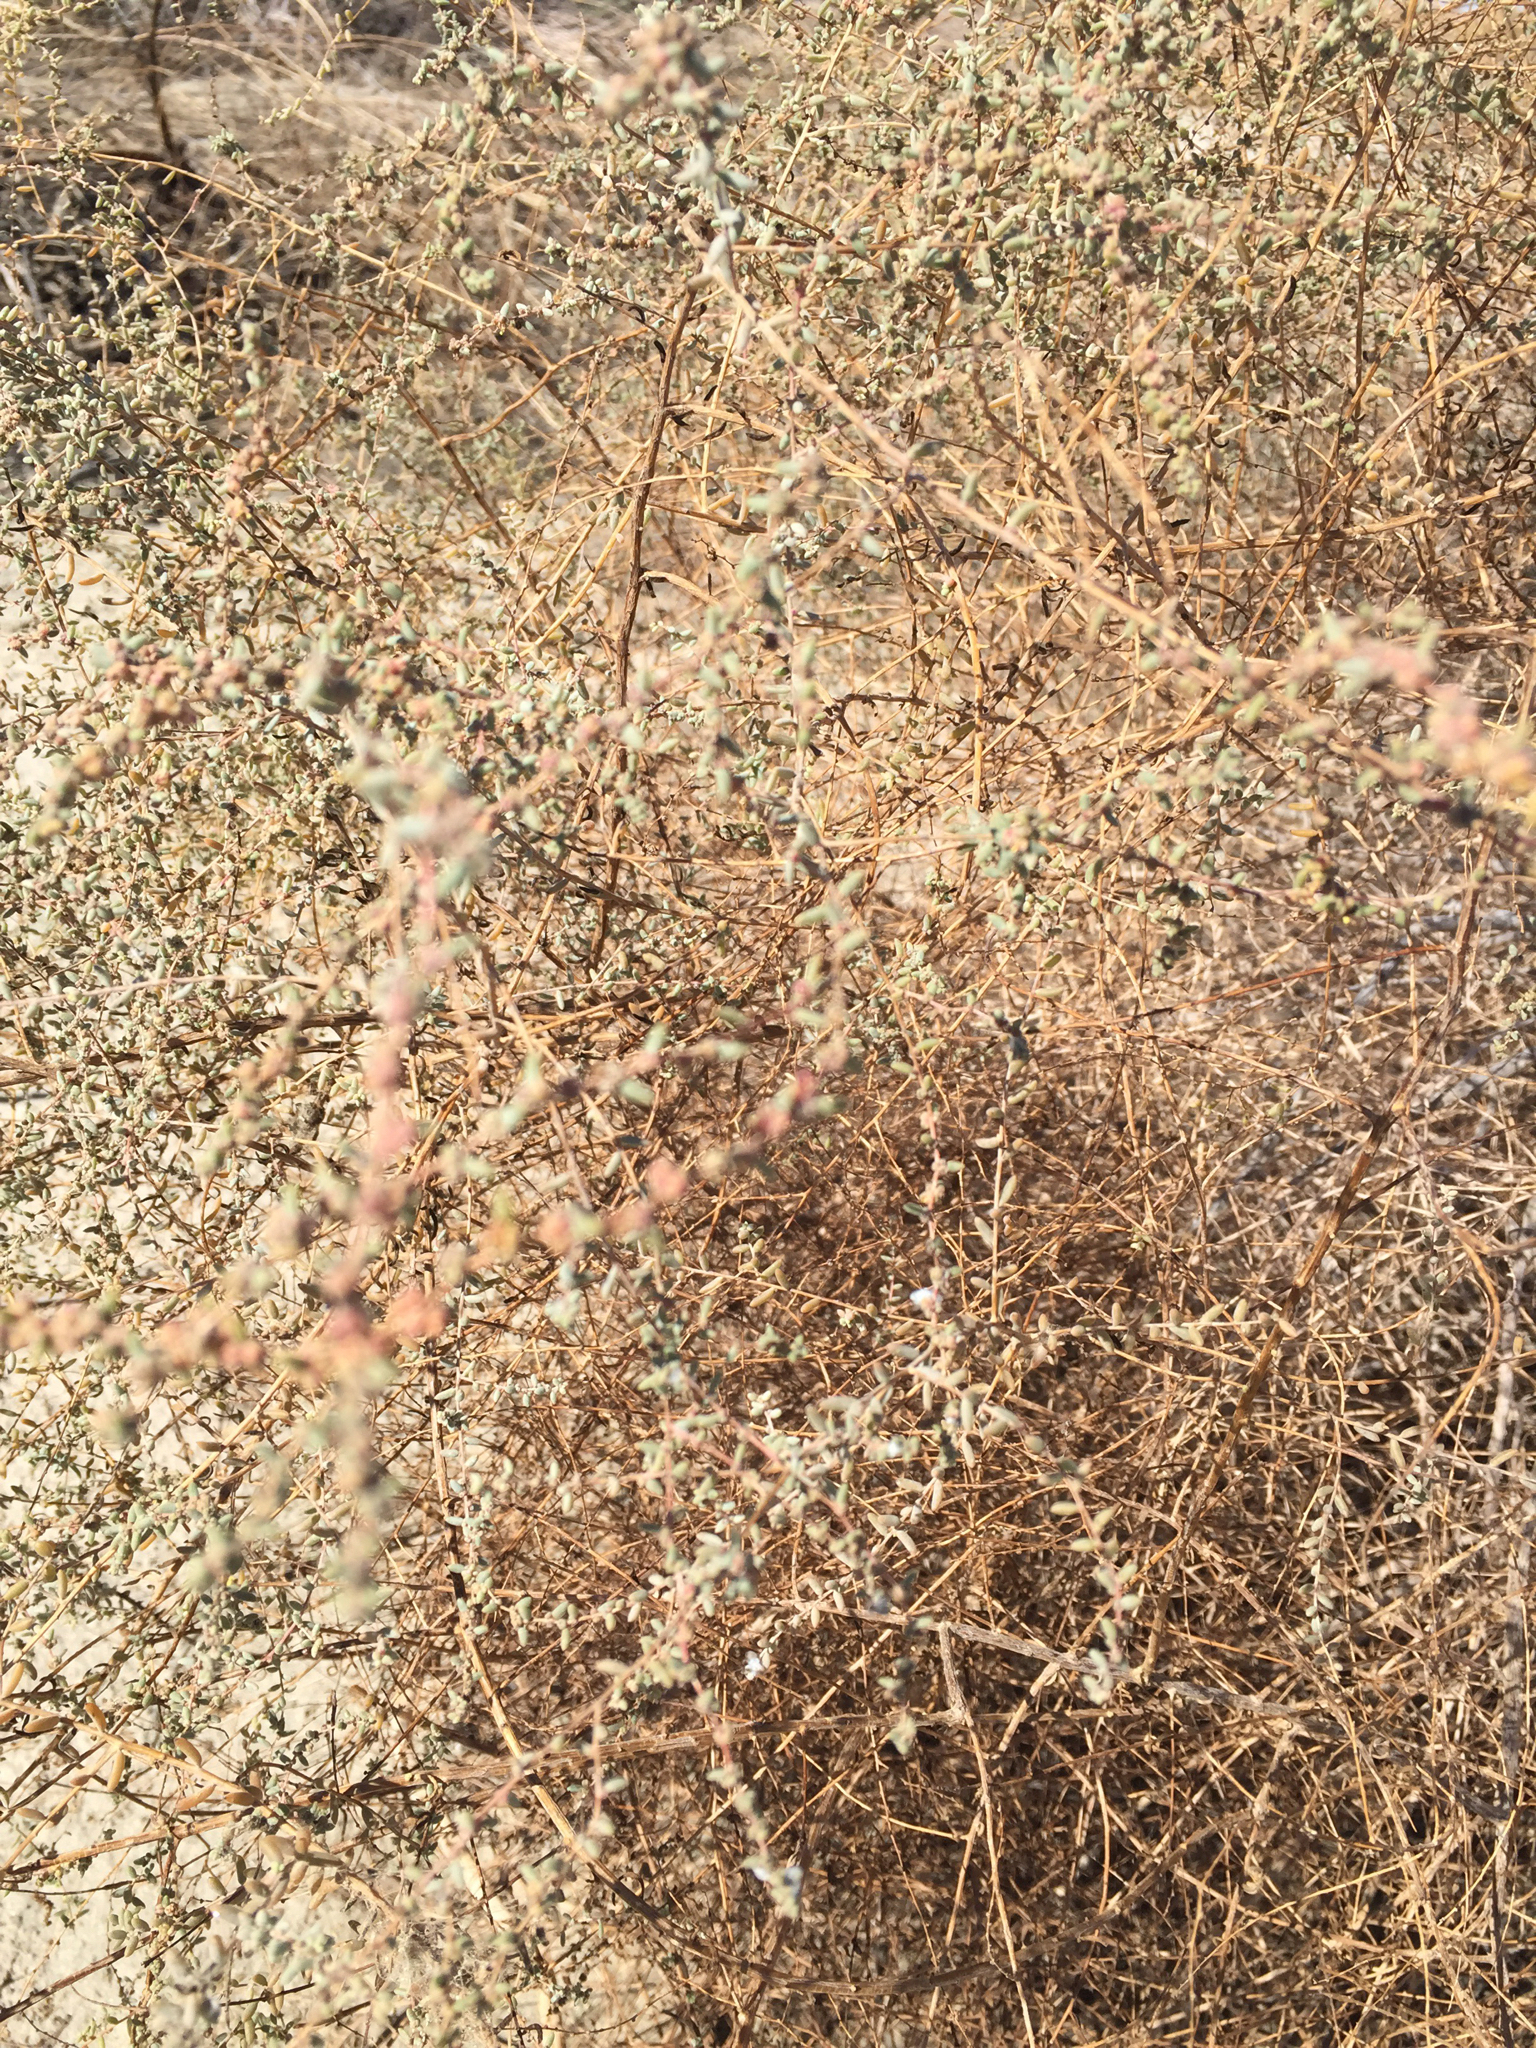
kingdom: Plantae
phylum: Tracheophyta
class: Magnoliopsida
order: Caryophyllales
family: Amaranthaceae
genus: Suaeda
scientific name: Suaeda nigra
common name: Bush seepweed
